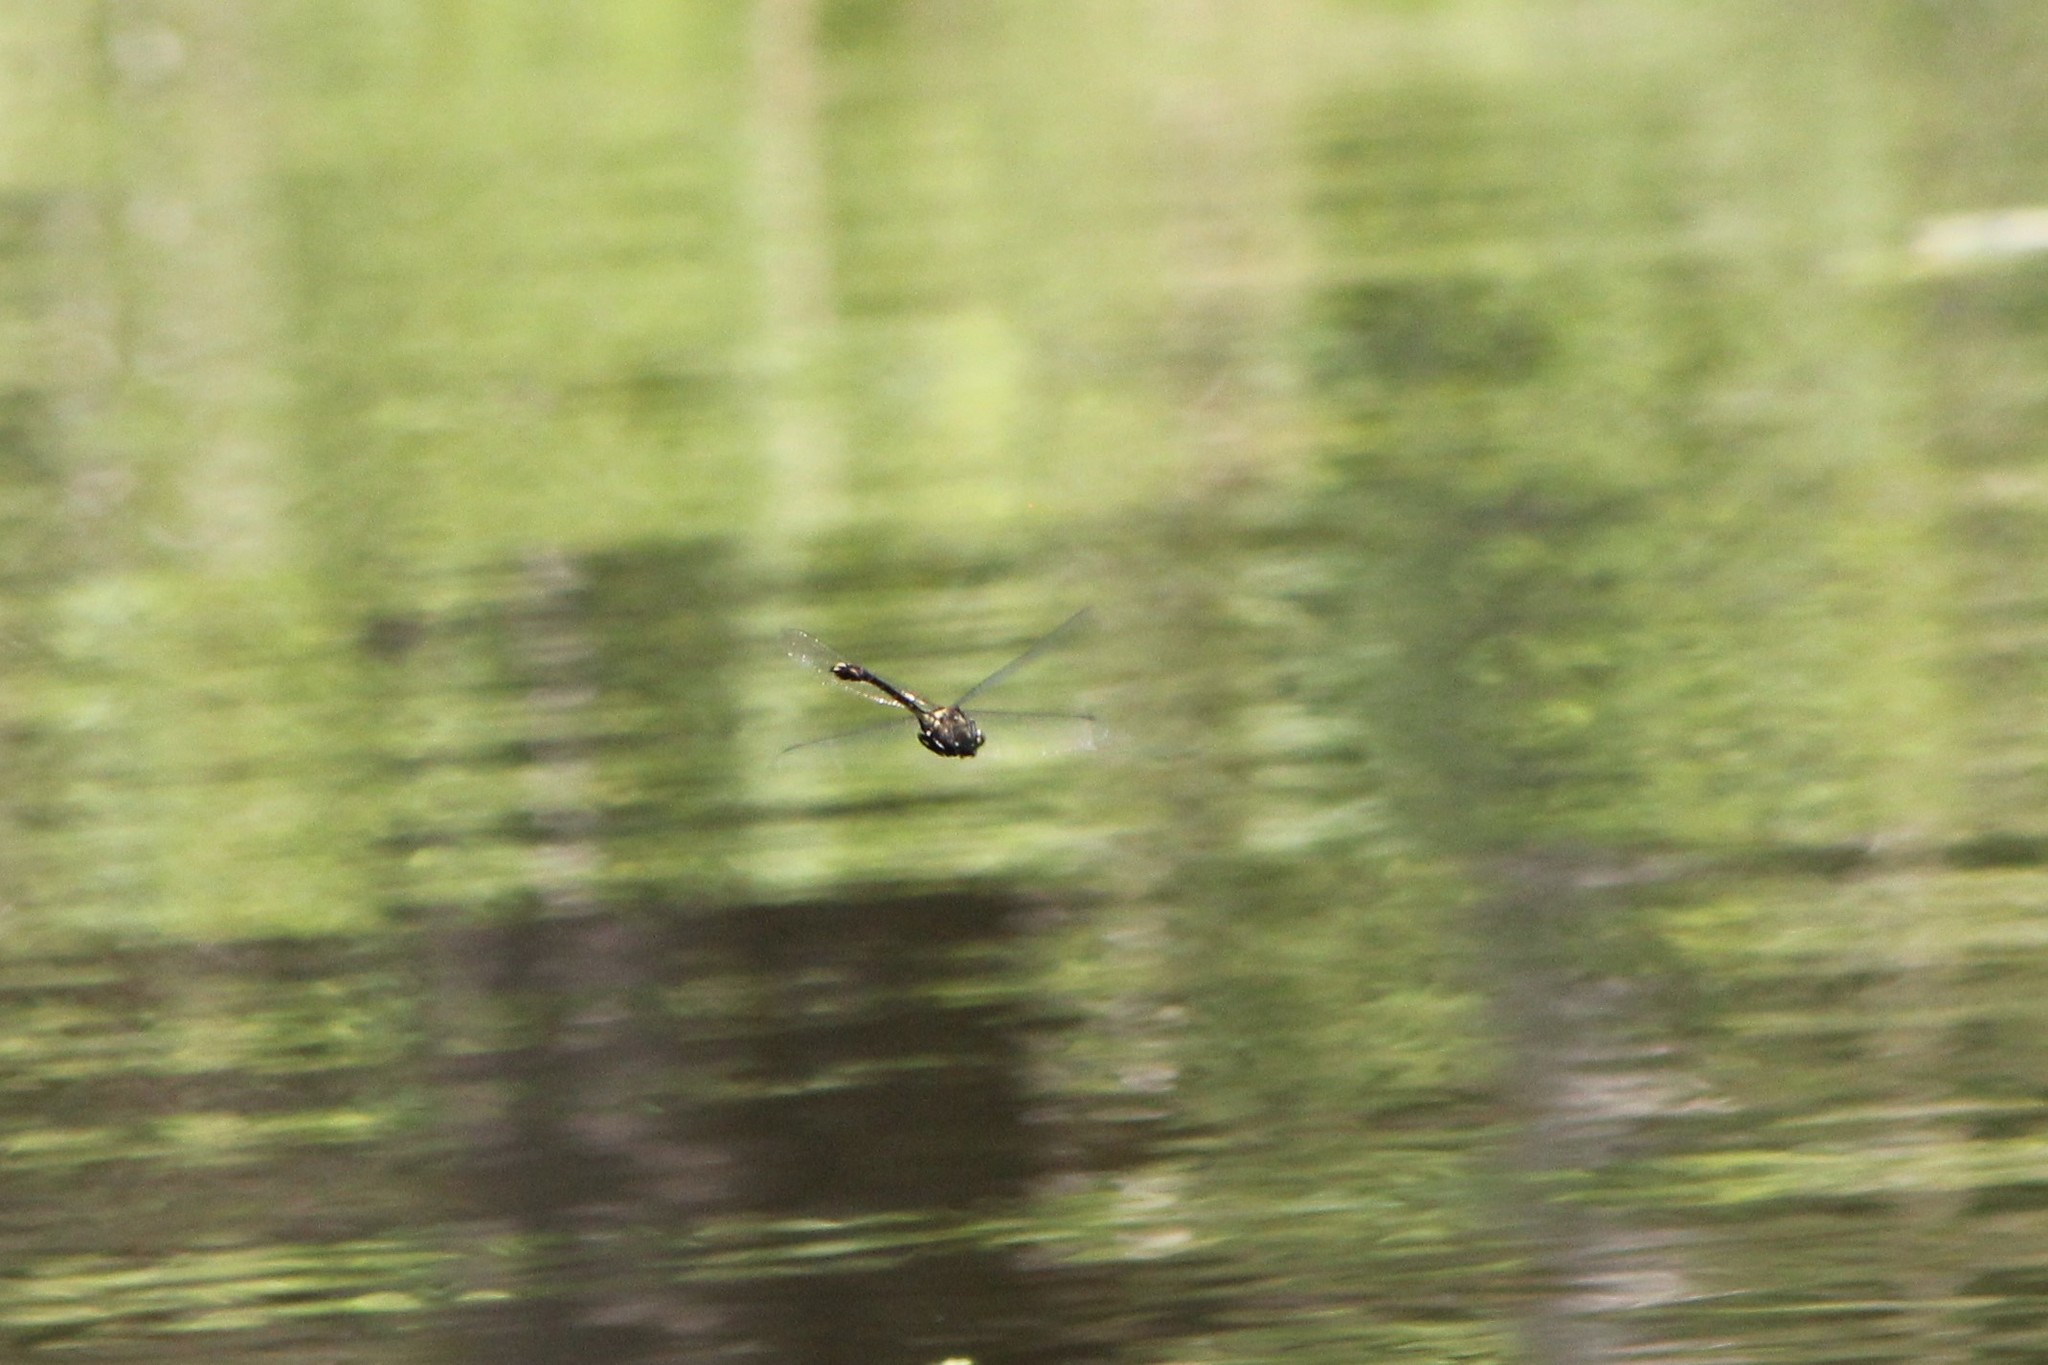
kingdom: Animalia
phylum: Arthropoda
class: Insecta
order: Odonata
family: Gomphidae
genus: Dromogomphus
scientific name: Dromogomphus spinosus
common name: Black-shouldered spinyleg
